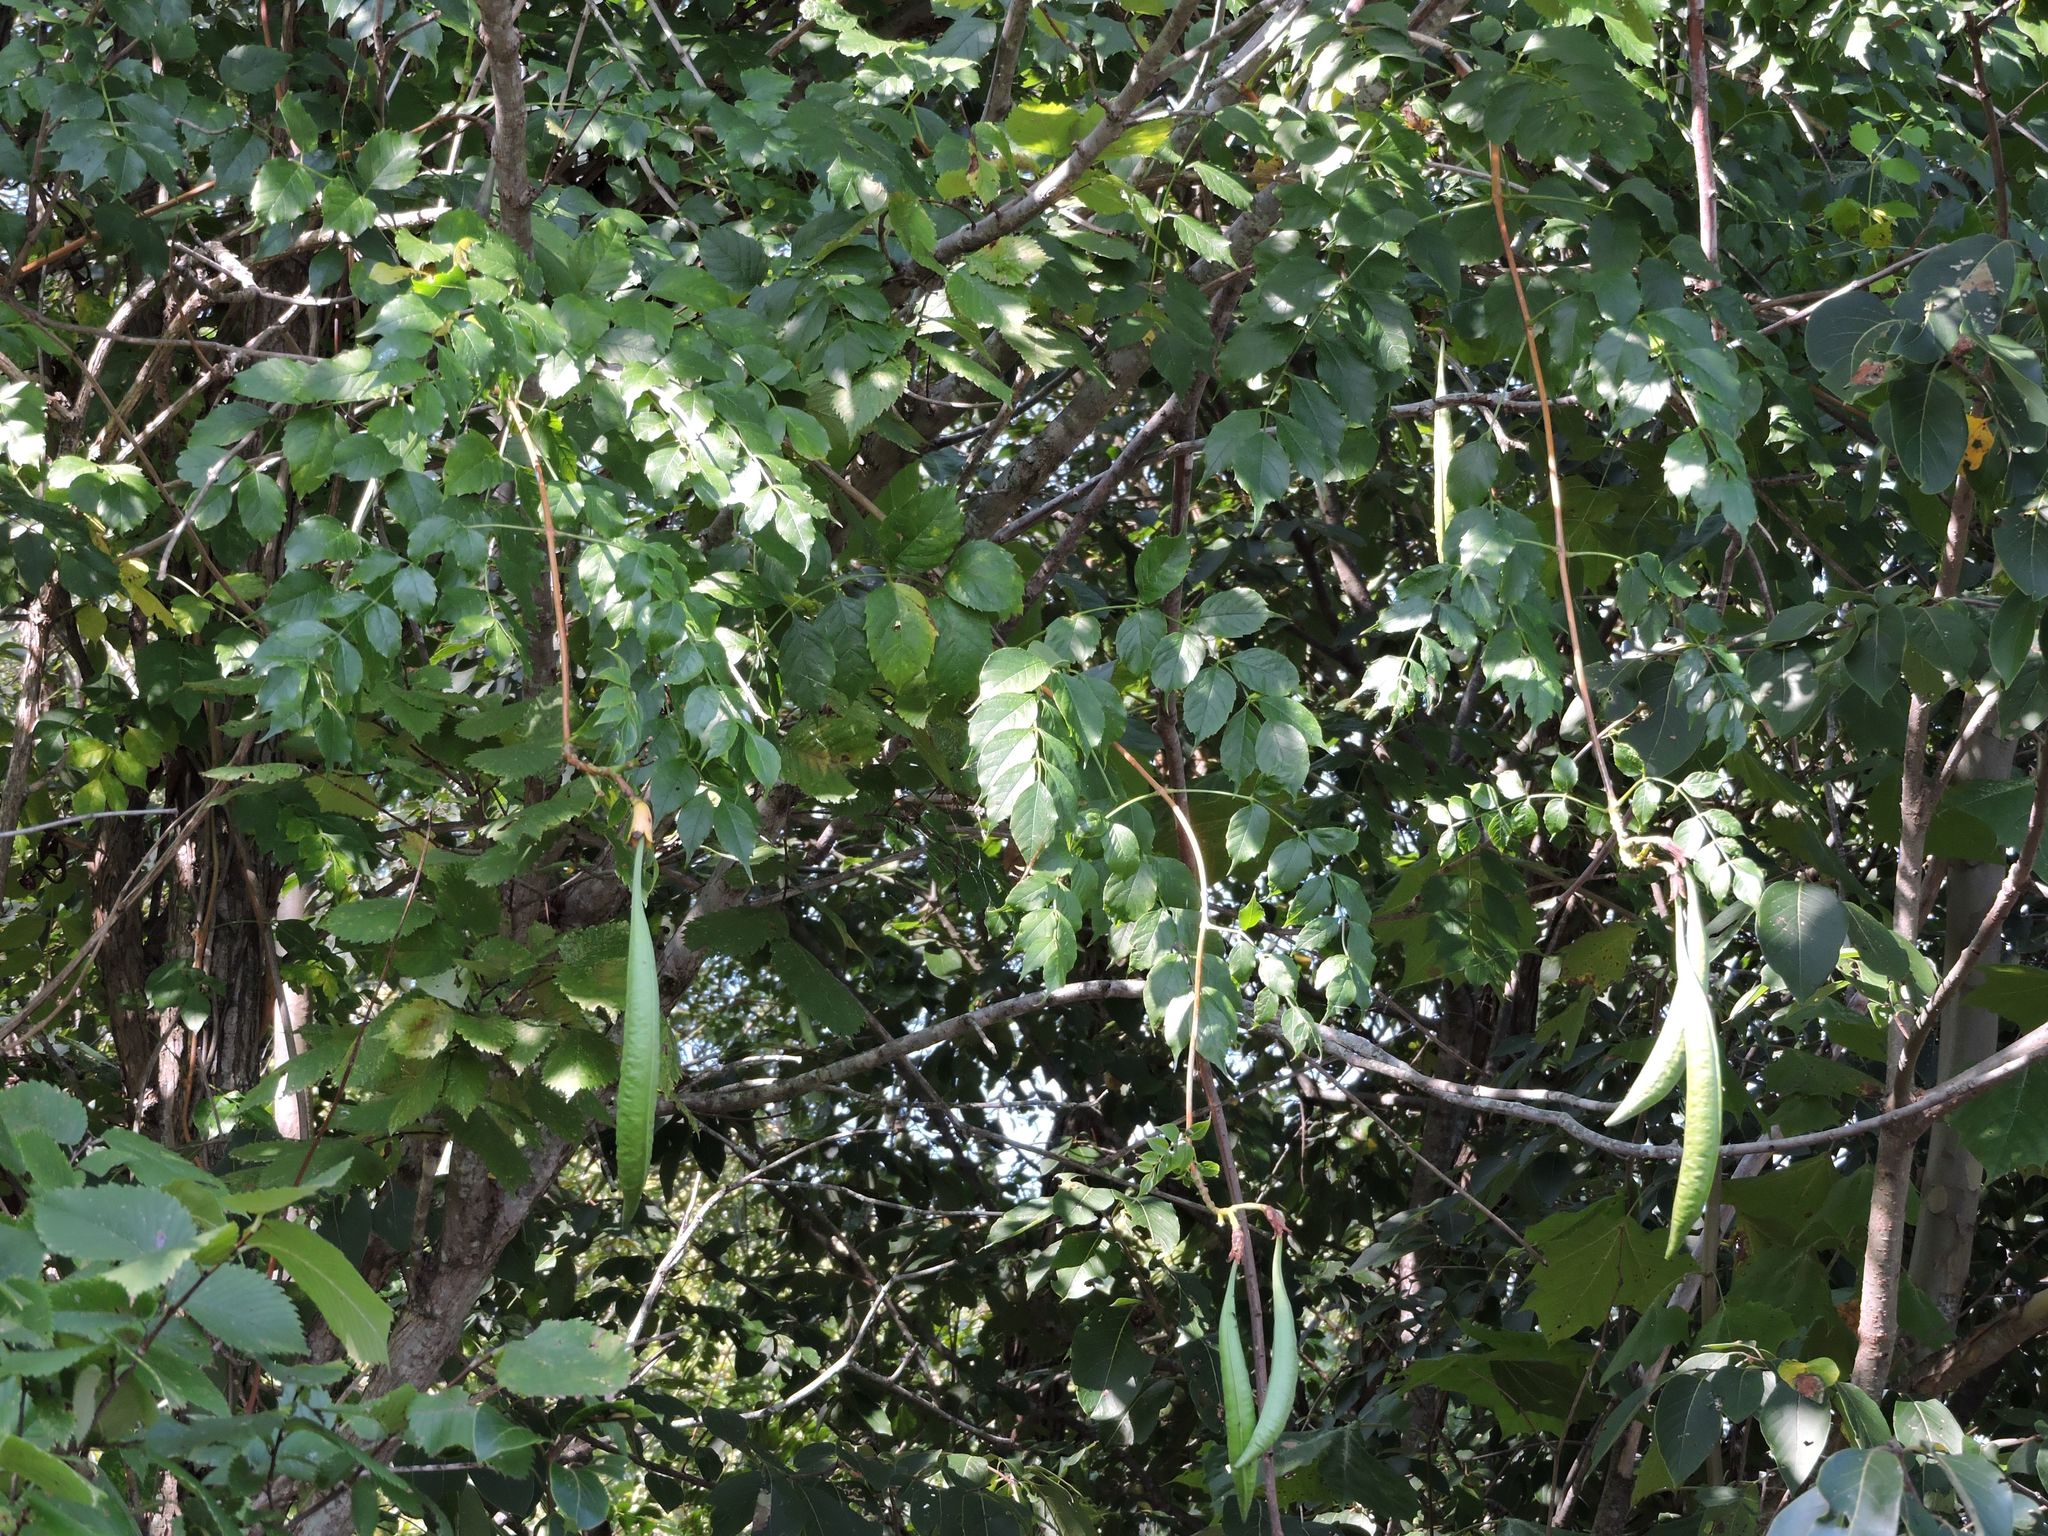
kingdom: Plantae
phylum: Tracheophyta
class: Magnoliopsida
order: Lamiales
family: Bignoniaceae
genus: Campsis
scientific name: Campsis radicans
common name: Trumpet-creeper
